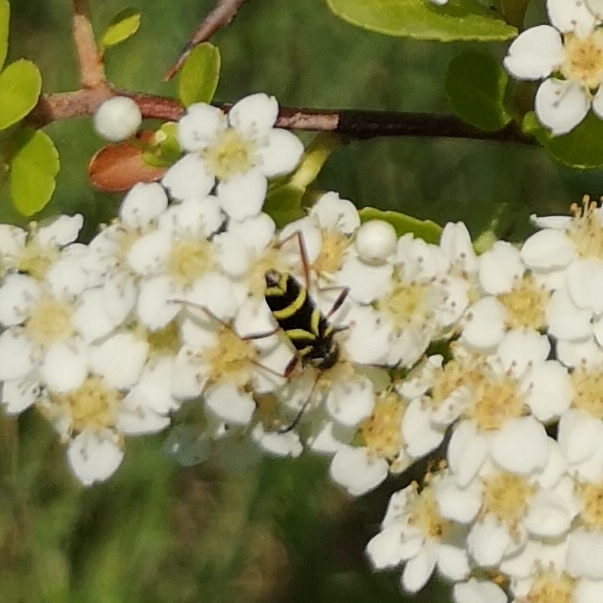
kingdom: Animalia
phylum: Arthropoda
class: Insecta
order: Coleoptera
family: Cerambycidae
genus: Clytus
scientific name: Clytus arietis
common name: Wasp beetle
